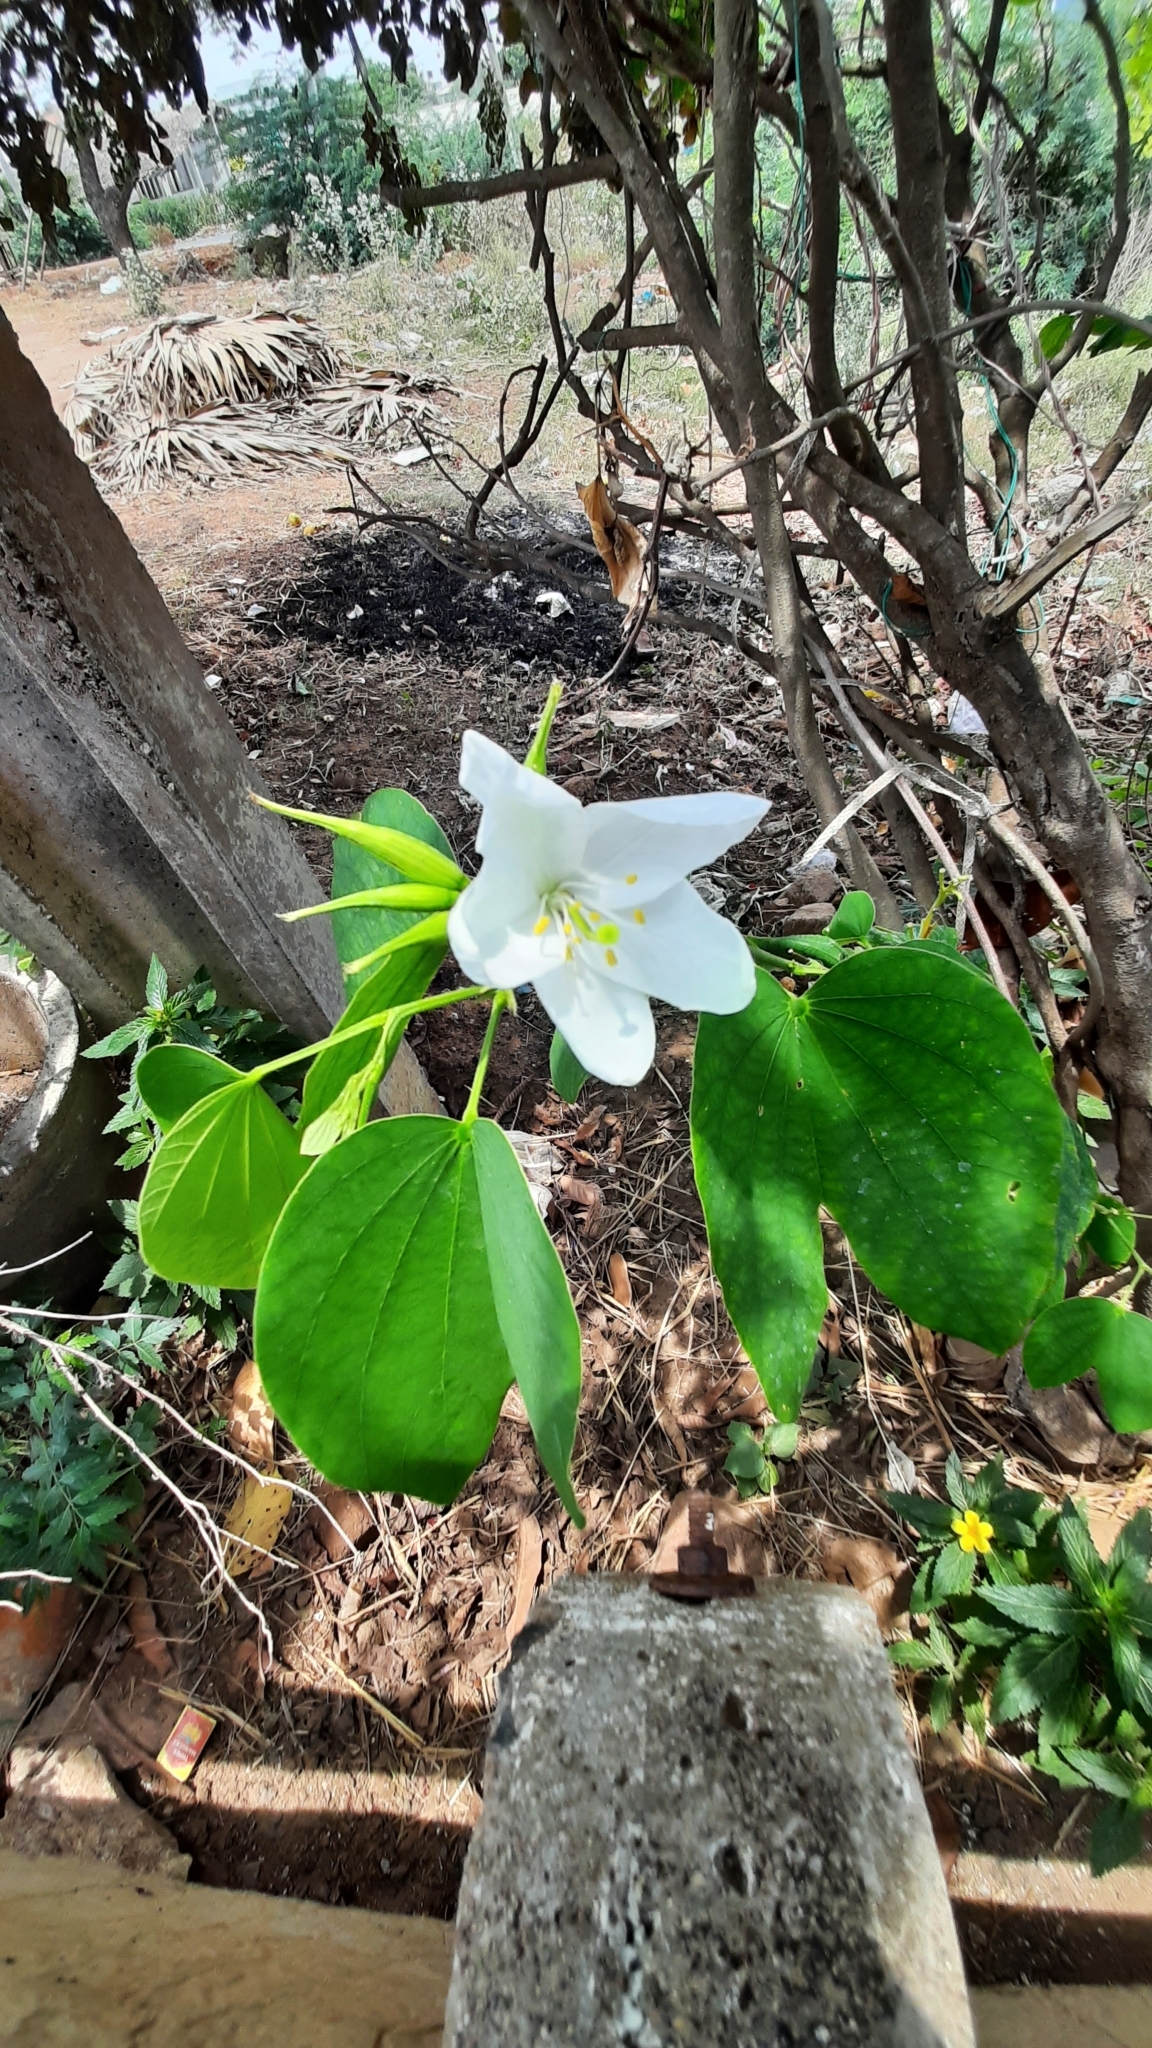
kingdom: Plantae
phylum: Tracheophyta
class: Magnoliopsida
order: Fabales
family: Fabaceae
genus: Bauhinia
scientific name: Bauhinia acuminata
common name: Dwarf white bauhinia
